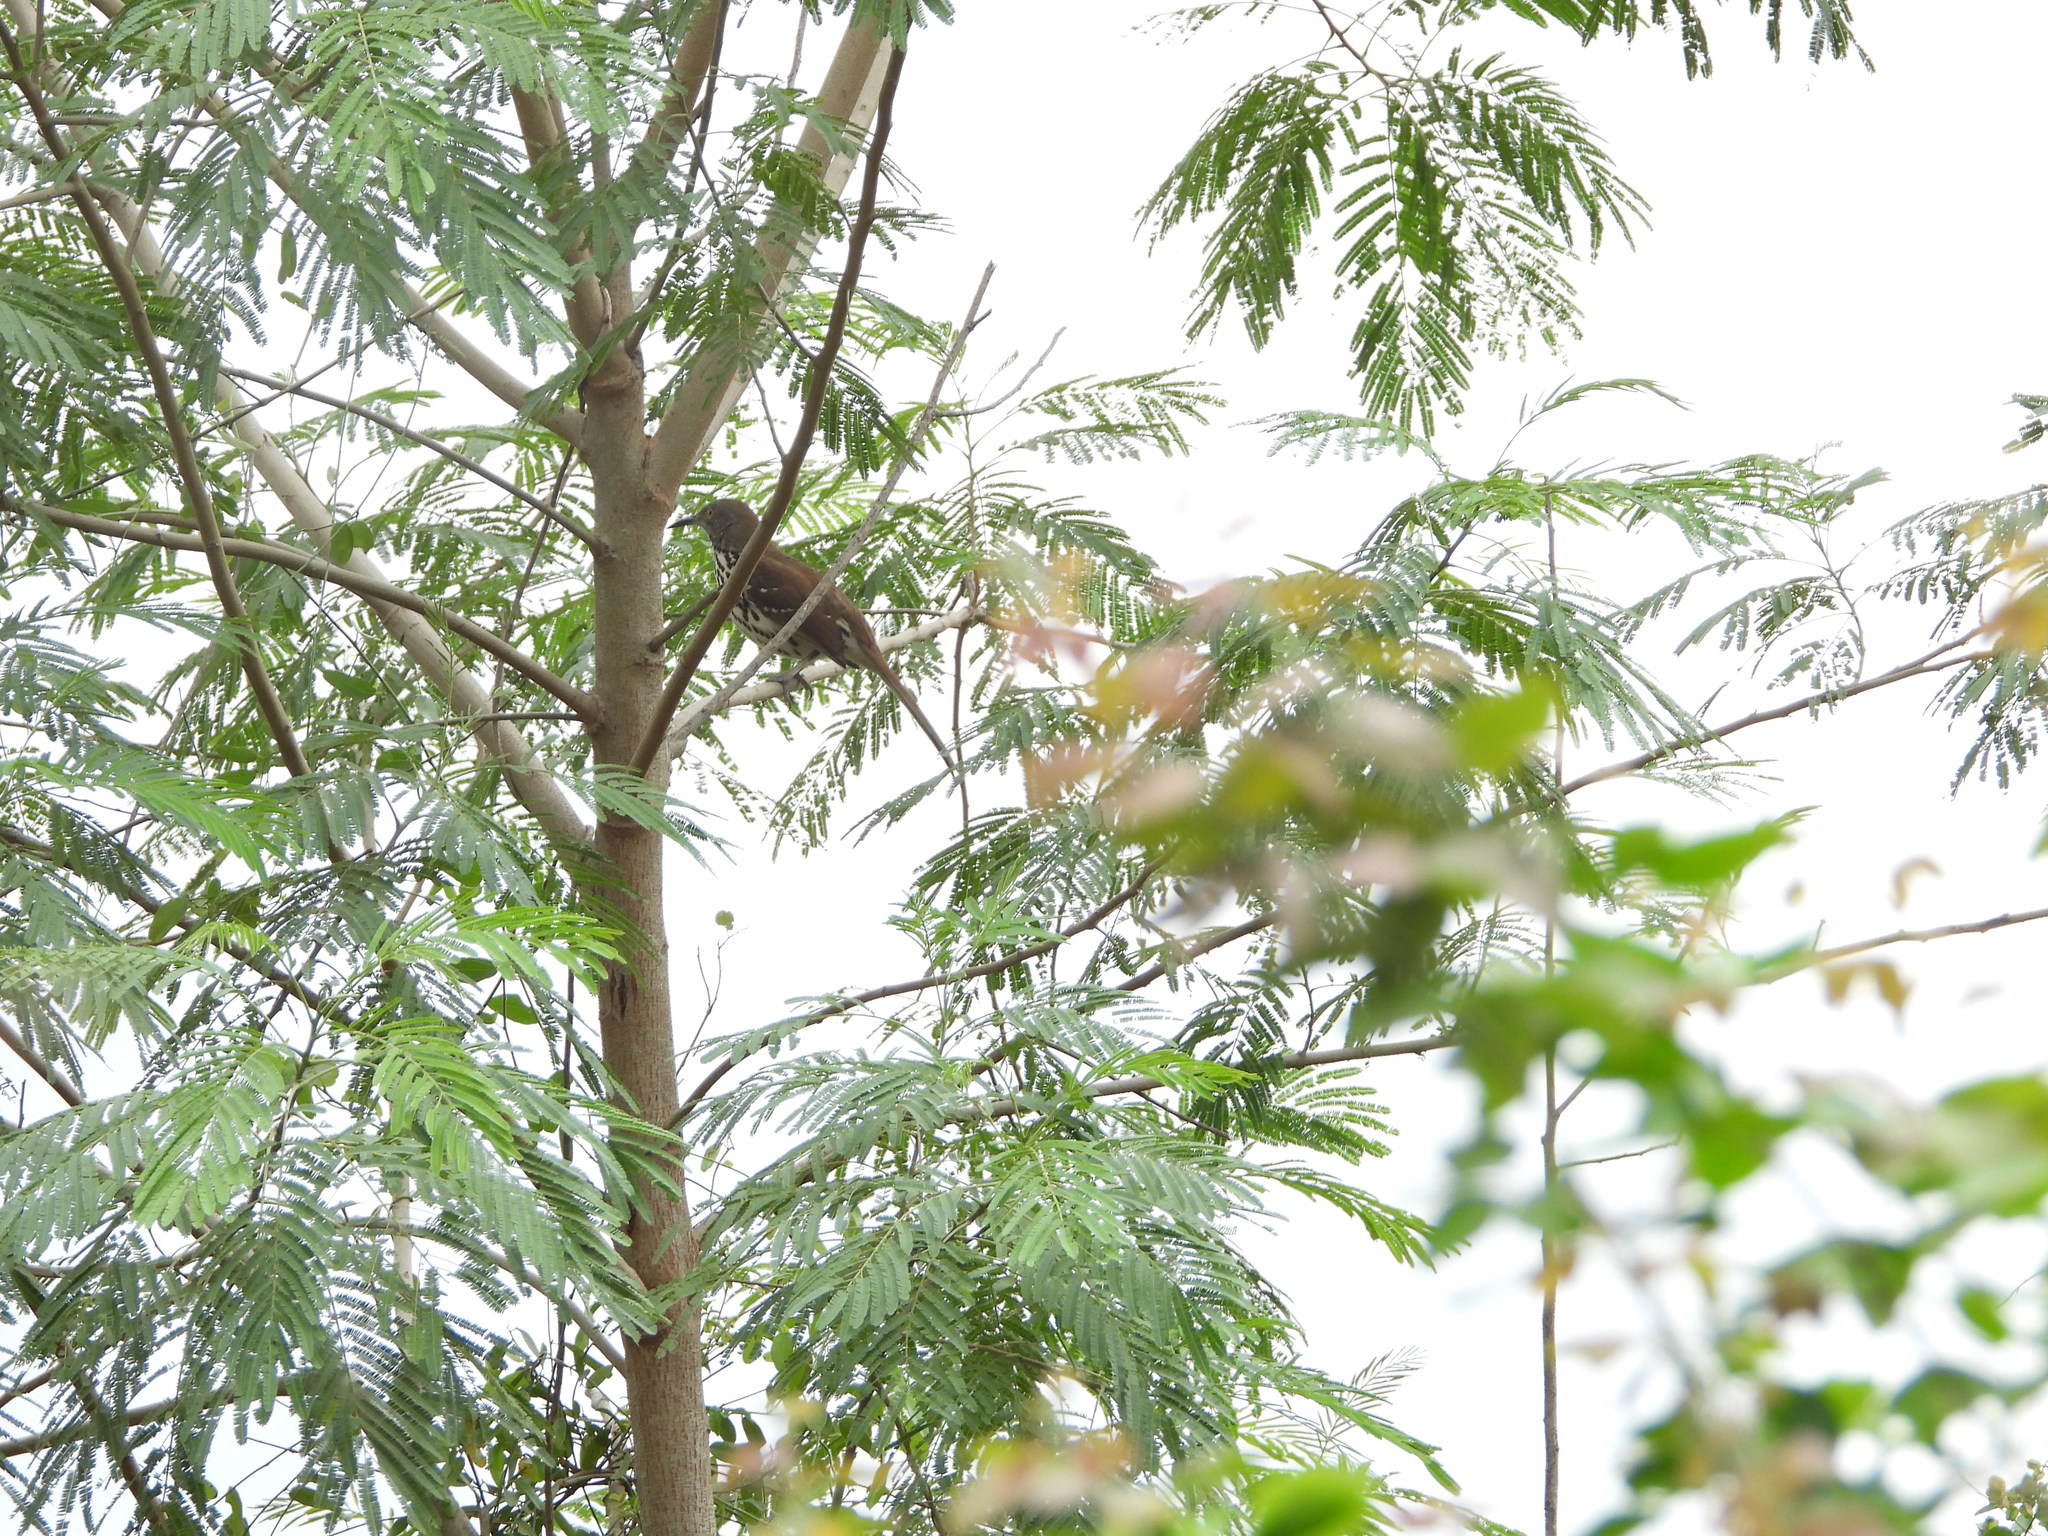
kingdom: Animalia
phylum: Chordata
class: Aves
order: Passeriformes
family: Mimidae
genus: Toxostoma
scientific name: Toxostoma longirostre
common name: Long-billed thrasher
